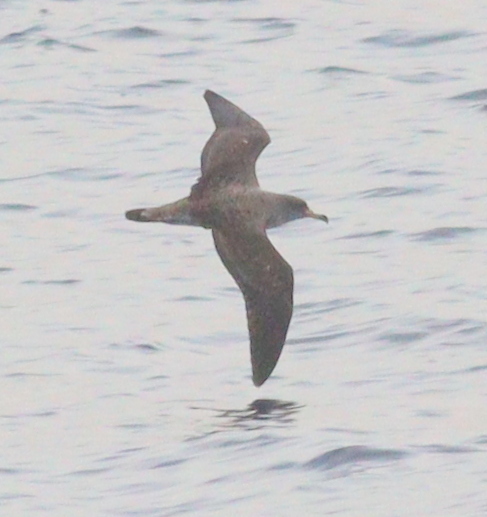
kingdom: Animalia
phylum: Chordata
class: Aves
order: Procellariiformes
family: Procellariidae
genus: Calonectris
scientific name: Calonectris diomedea
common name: Cory's shearwater
